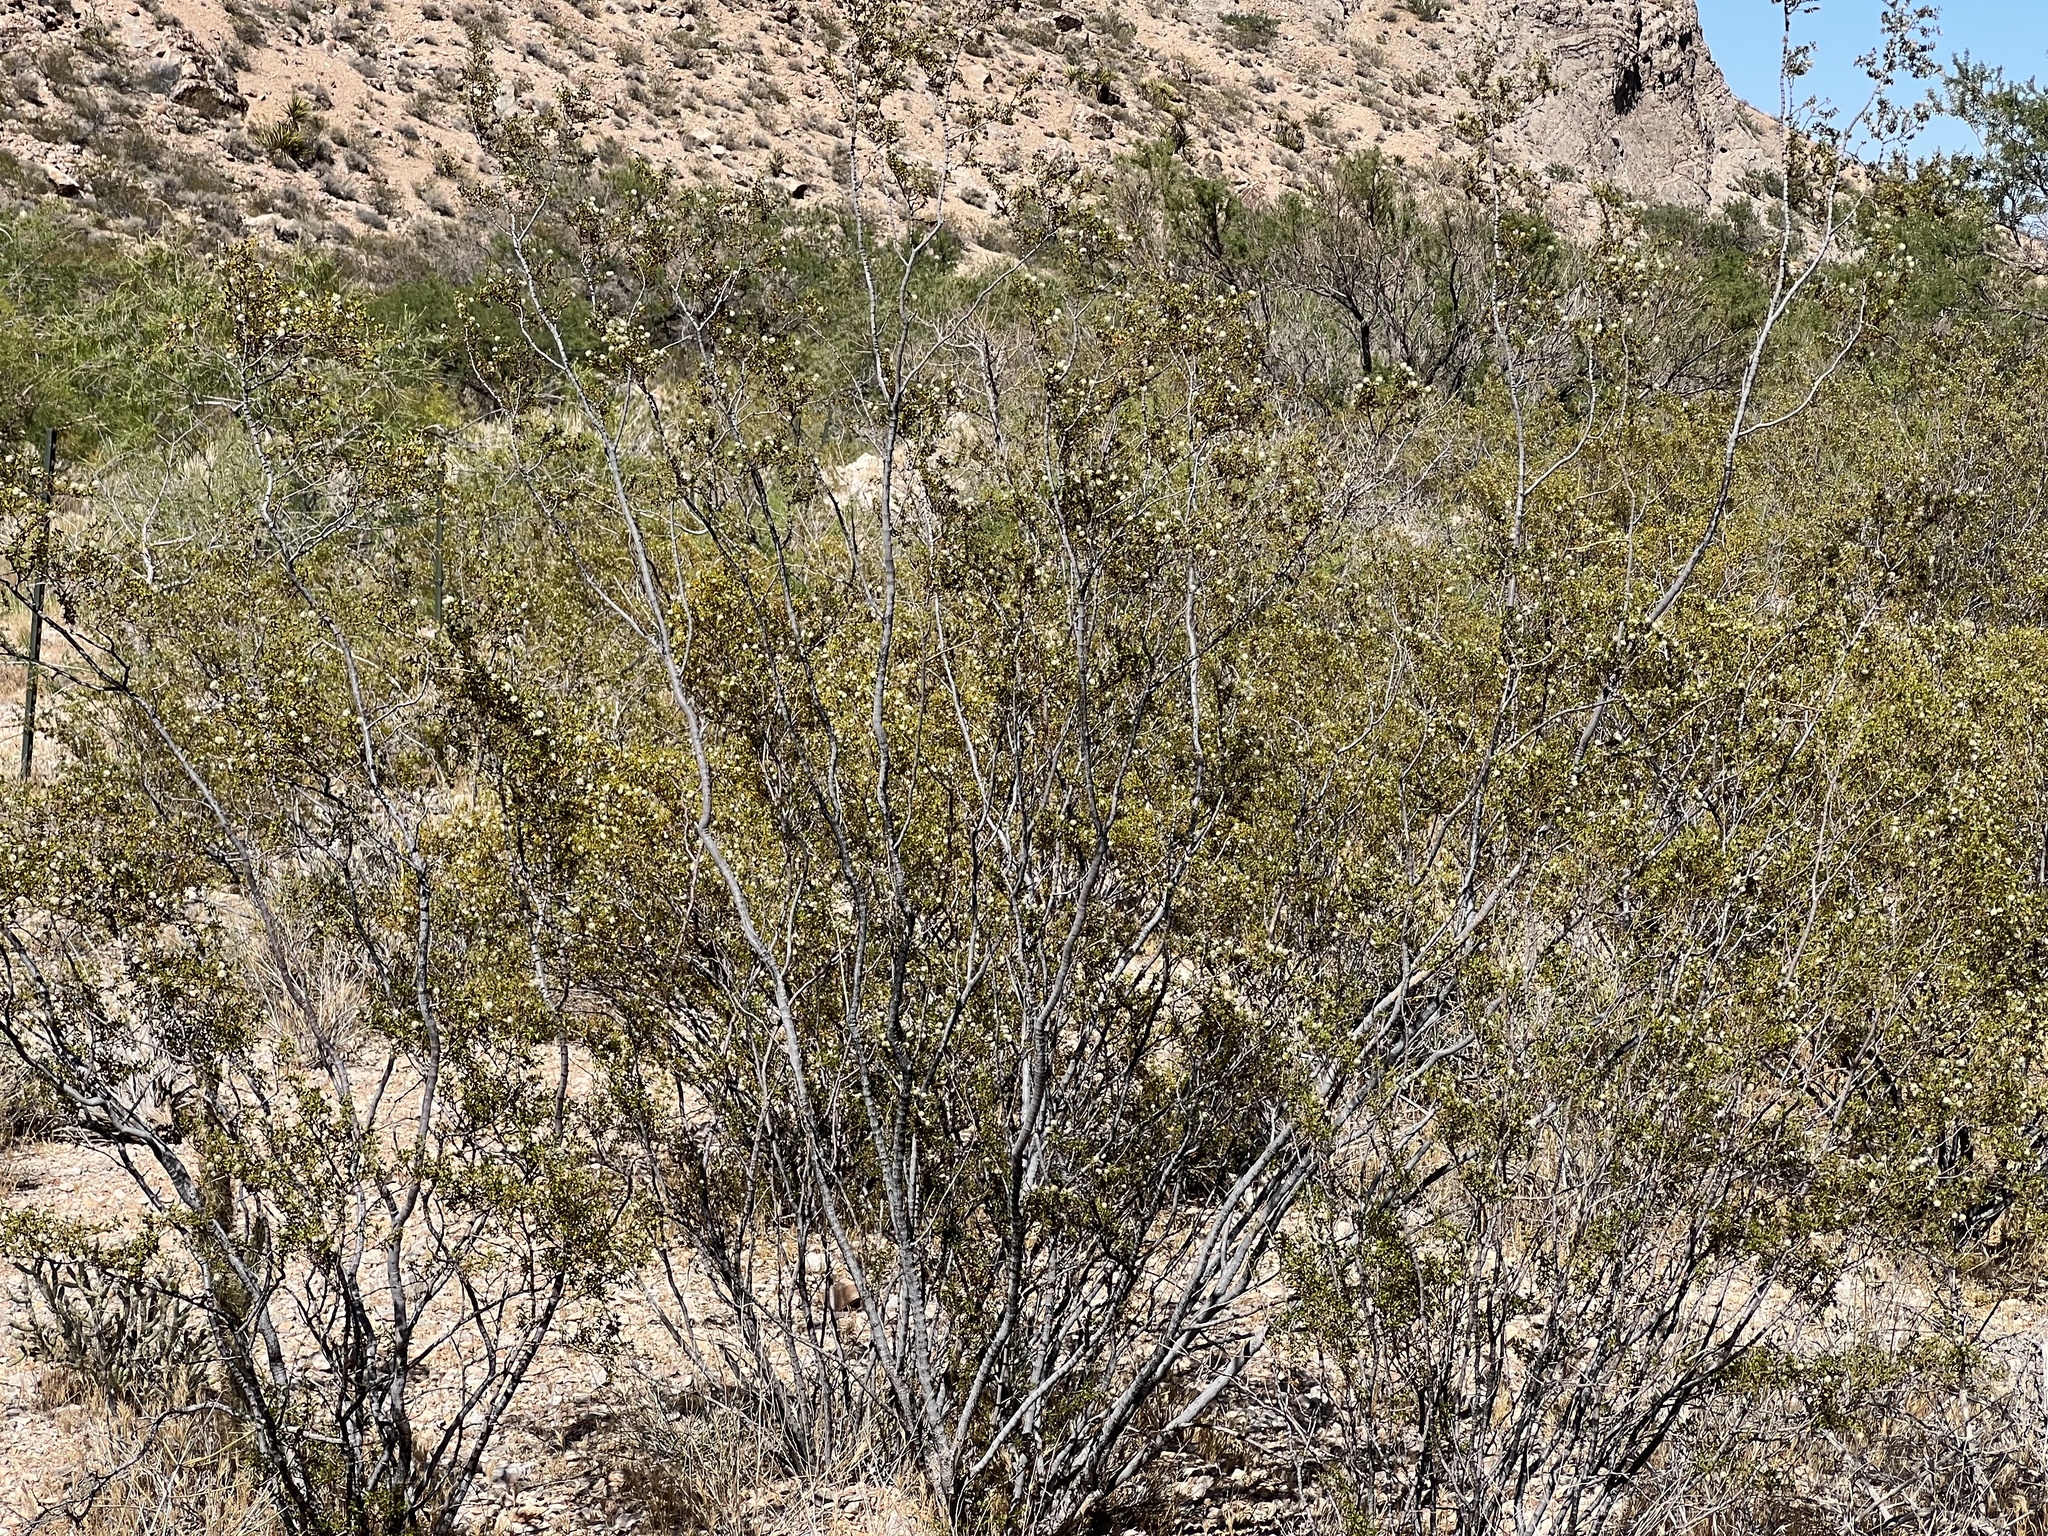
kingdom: Plantae
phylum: Tracheophyta
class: Magnoliopsida
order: Zygophyllales
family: Zygophyllaceae
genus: Larrea
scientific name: Larrea tridentata
